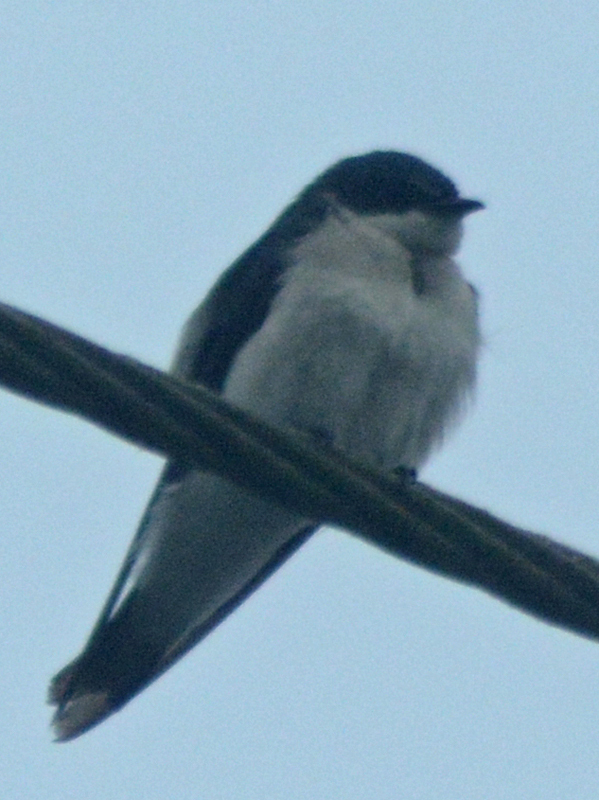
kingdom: Animalia
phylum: Chordata
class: Aves
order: Passeriformes
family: Hirundinidae
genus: Tachycineta
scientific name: Tachycineta albilinea
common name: Mangrove swallow
